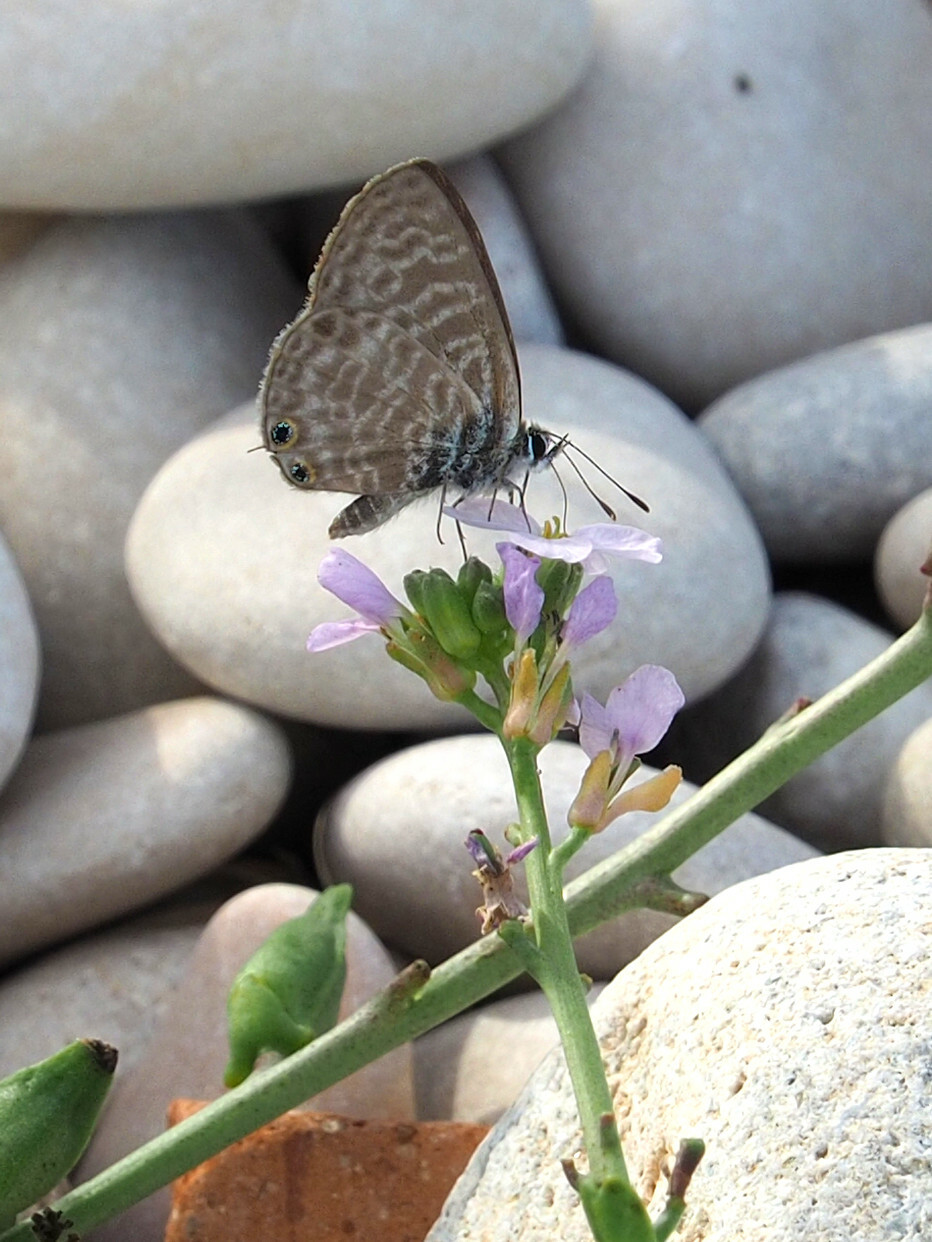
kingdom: Animalia
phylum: Arthropoda
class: Insecta
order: Lepidoptera
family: Lycaenidae
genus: Leptotes
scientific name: Leptotes pirithous
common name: Lang's short-tailed blue
